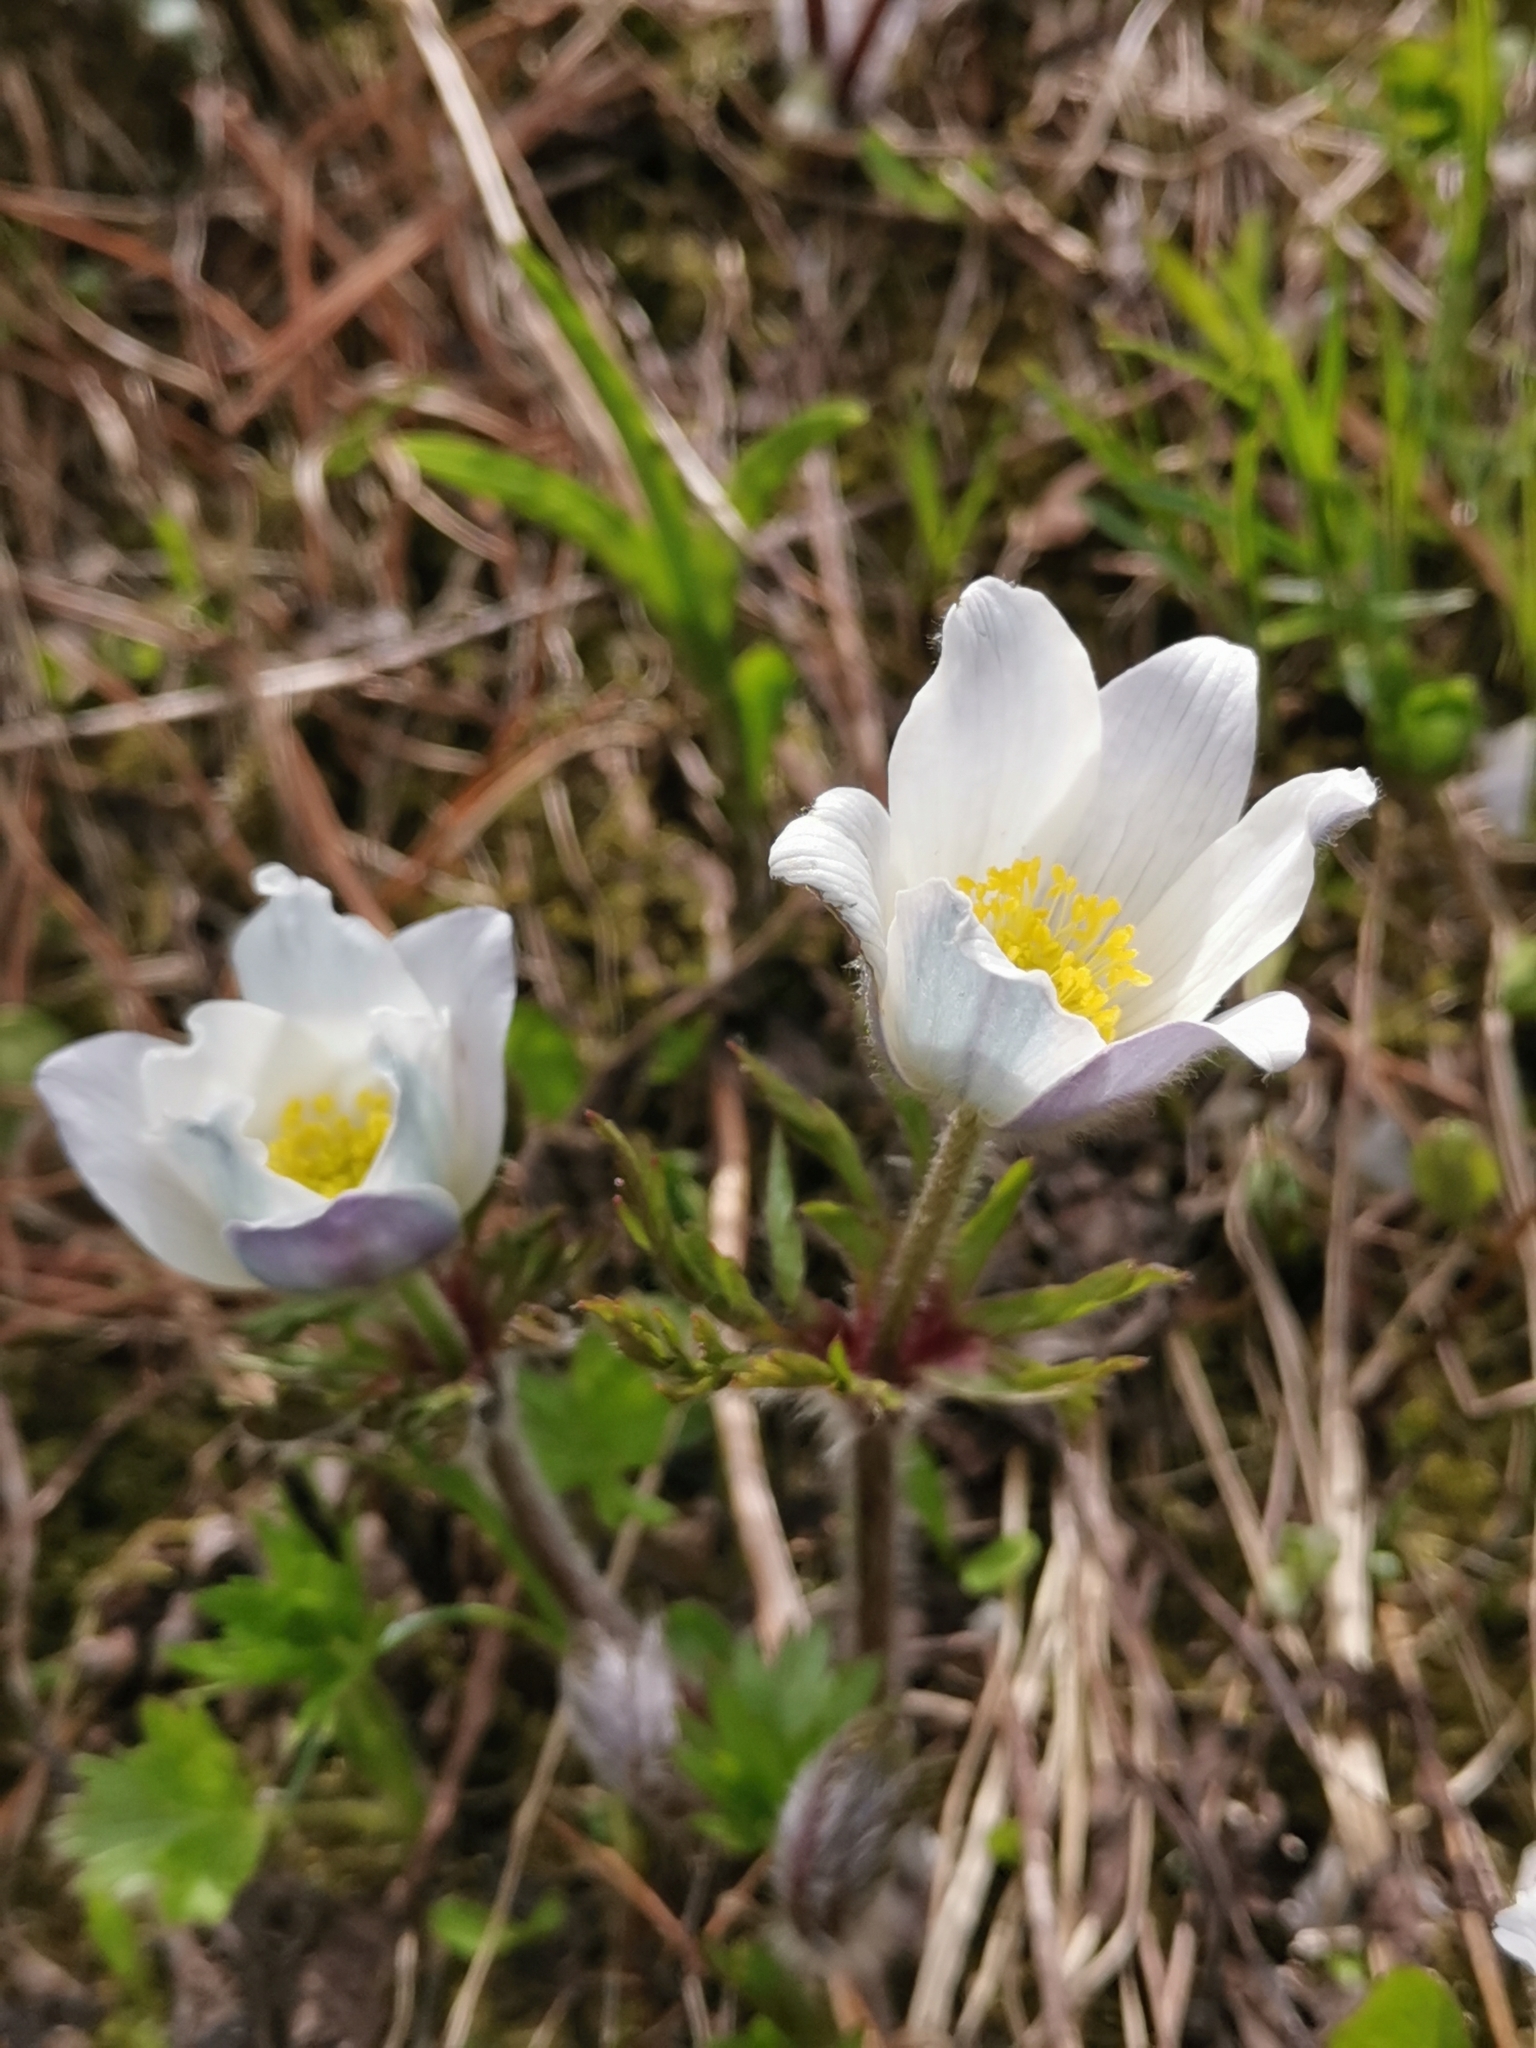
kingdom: Plantae
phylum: Tracheophyta
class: Magnoliopsida
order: Ranunculales
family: Ranunculaceae
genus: Pulsatilla
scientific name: Pulsatilla alpina
